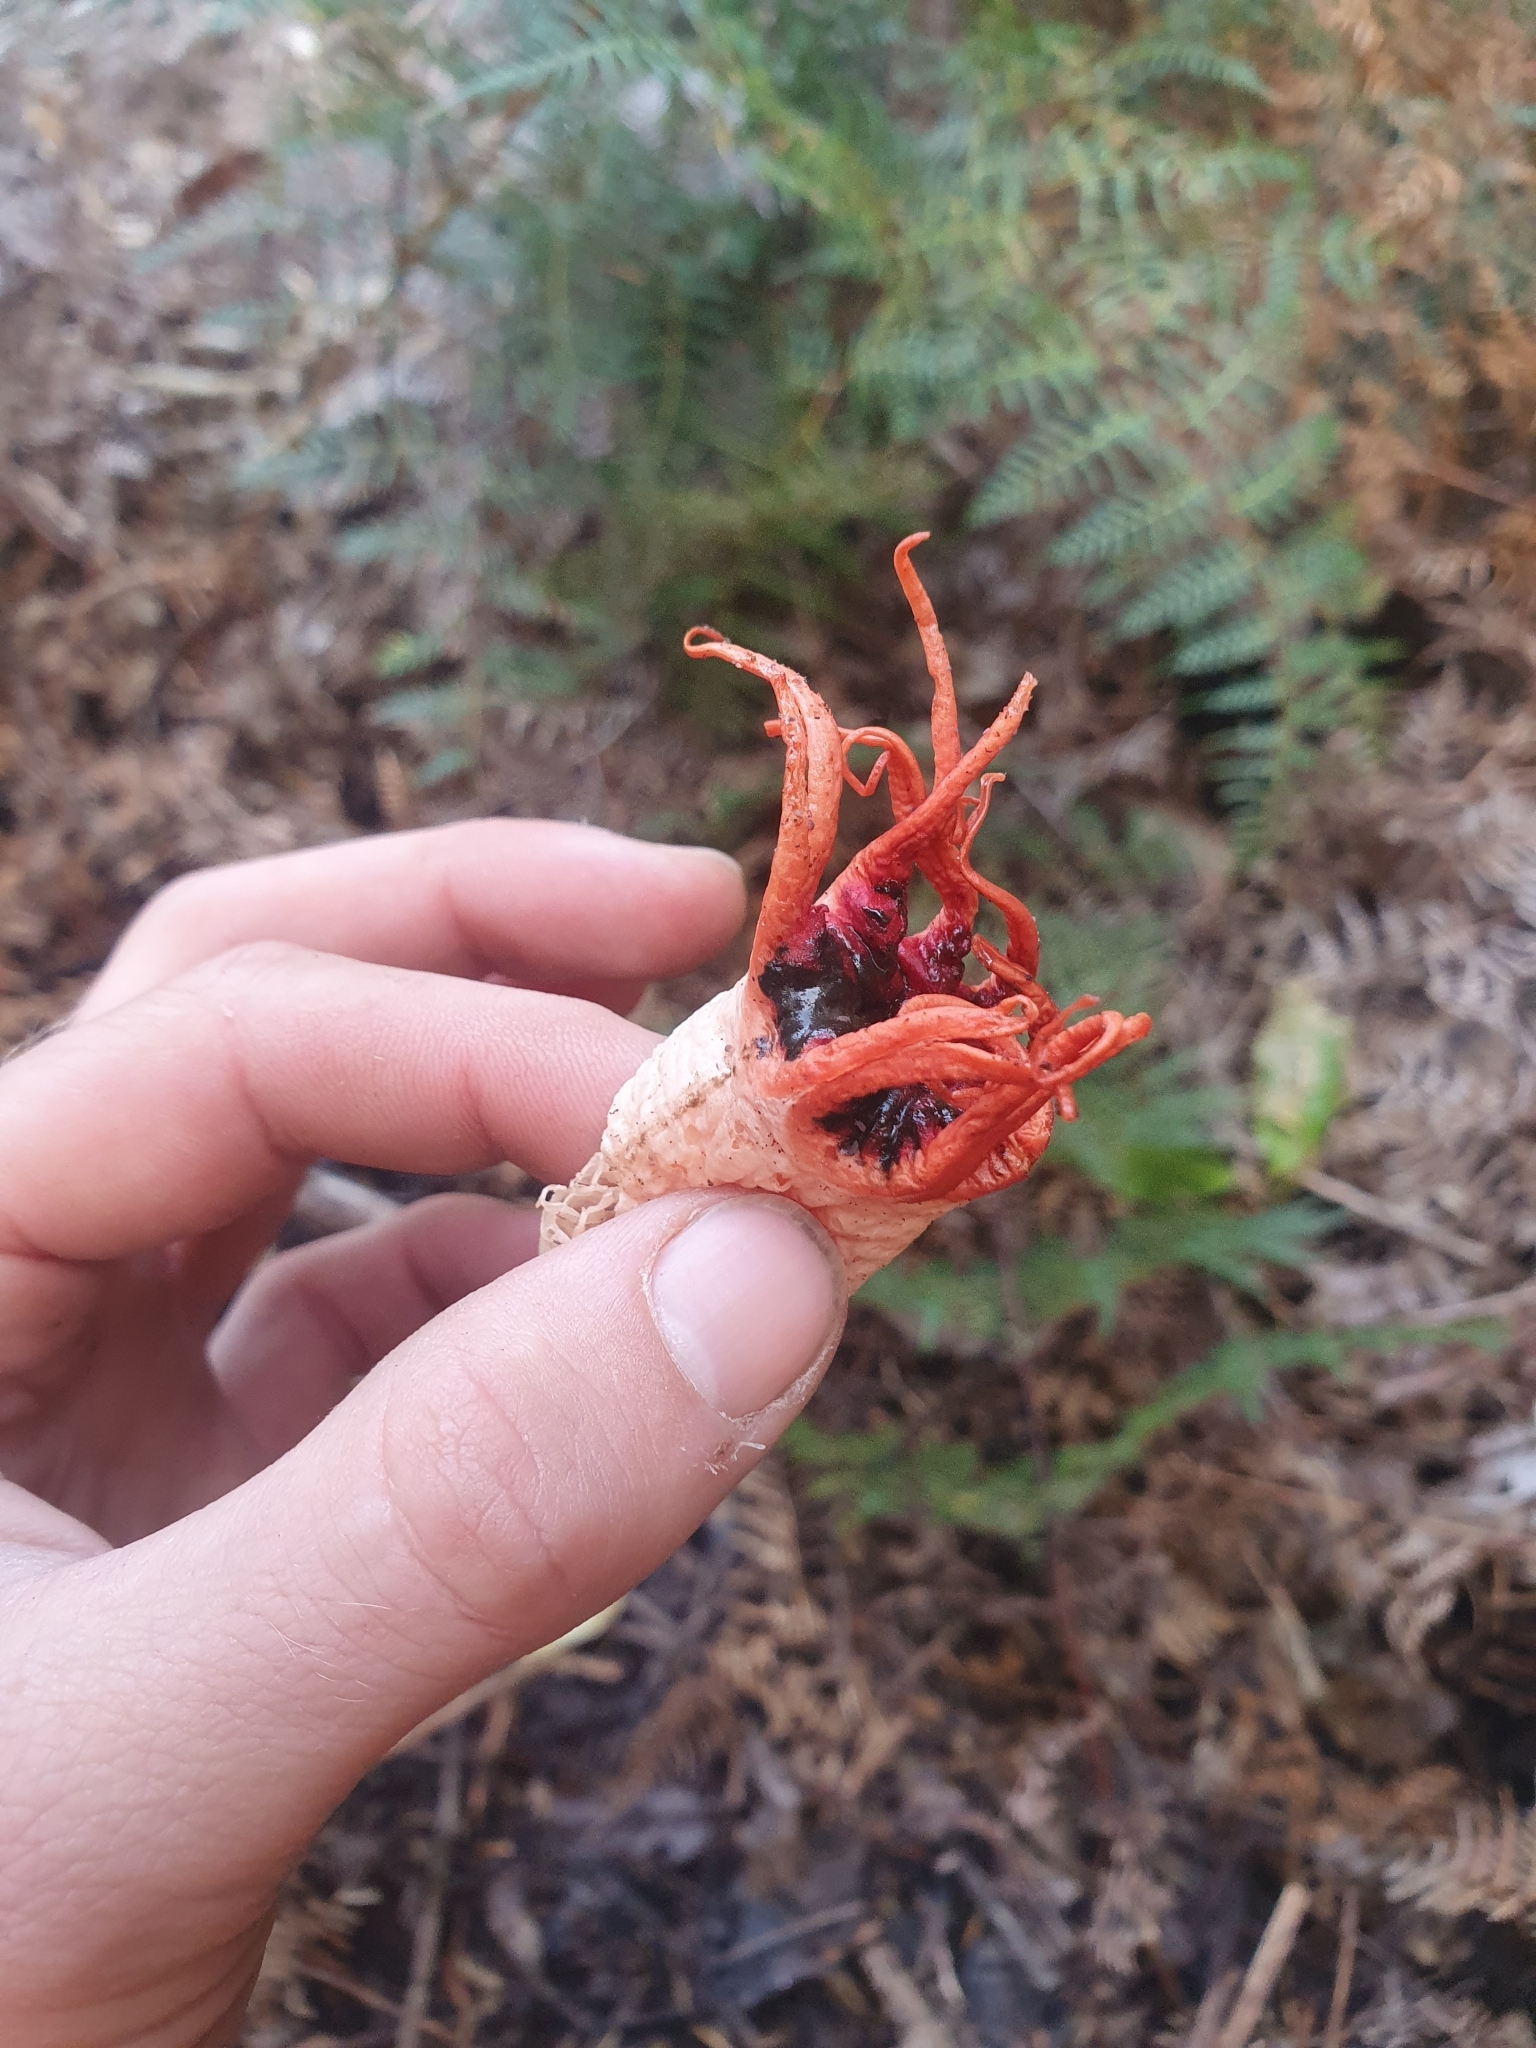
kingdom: Fungi
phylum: Basidiomycota
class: Agaricomycetes
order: Phallales
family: Phallaceae
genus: Aseroe
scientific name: Aseroe rubra
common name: Starfish fungus
